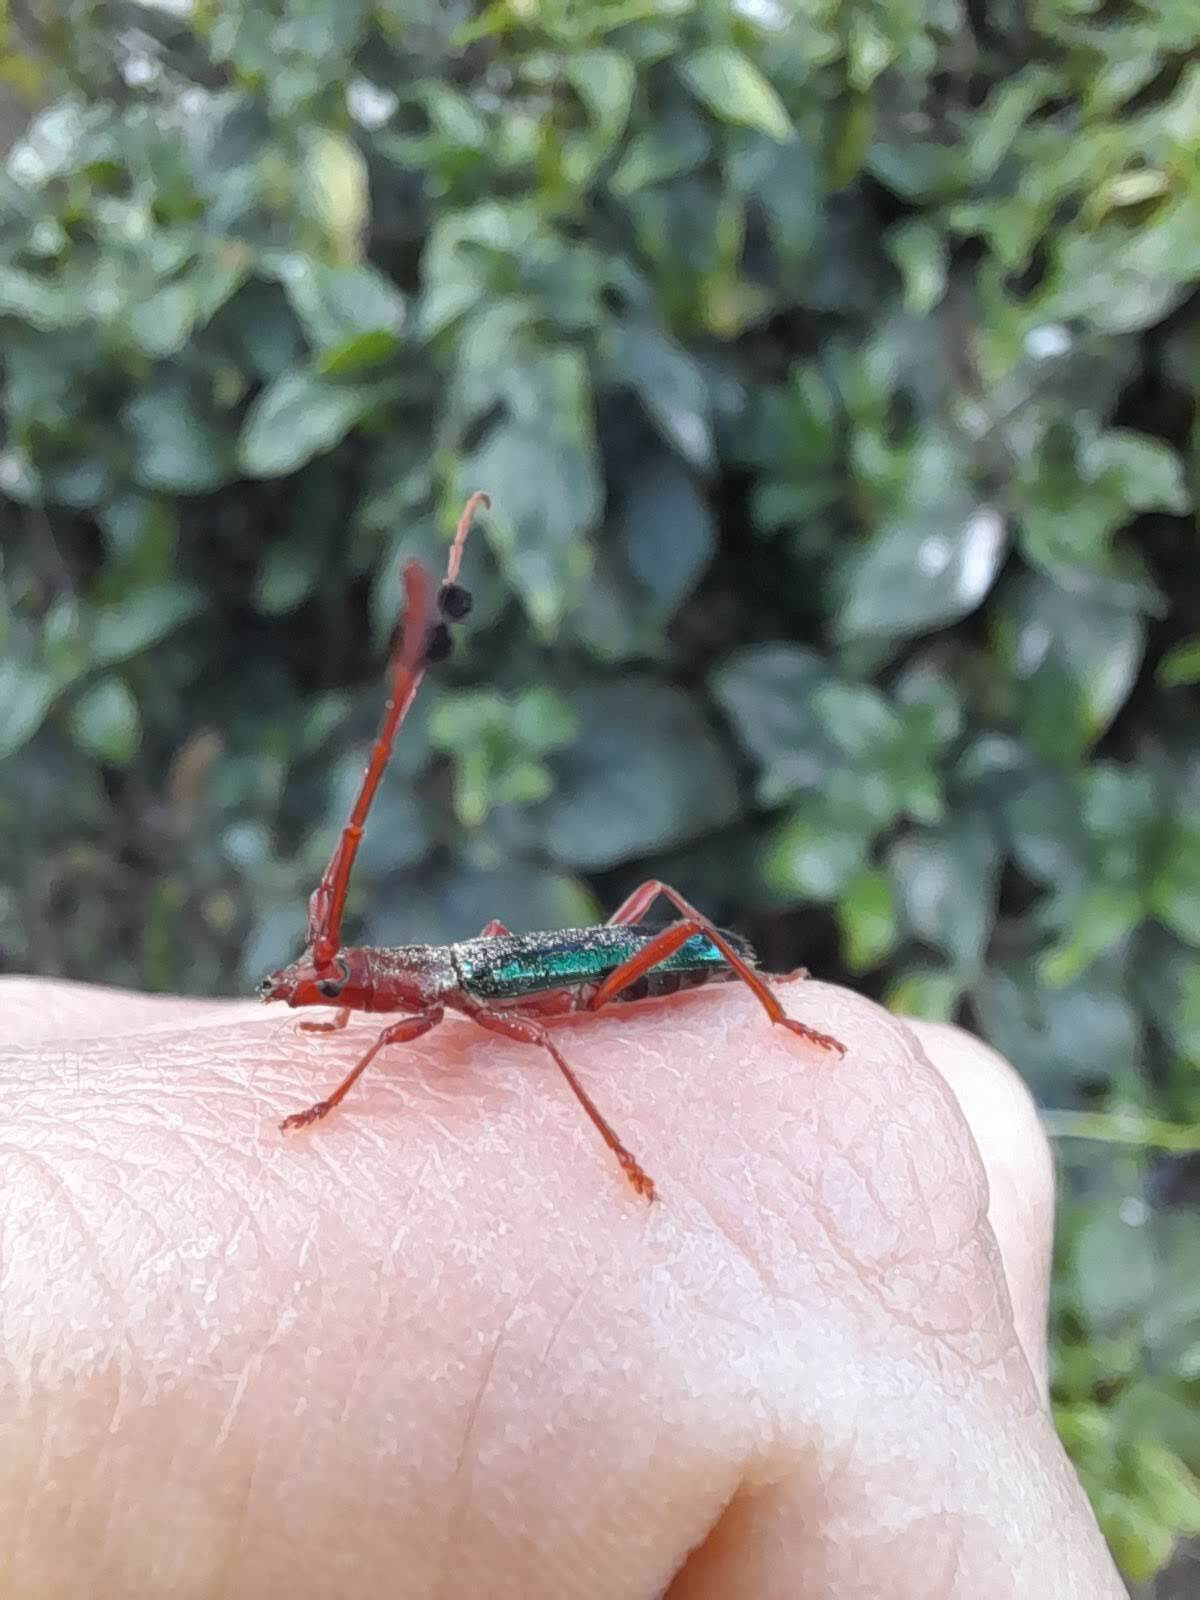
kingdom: Animalia
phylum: Arthropoda
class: Insecta
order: Coleoptera
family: Cerambycidae
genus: Compsocerus
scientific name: Compsocerus violaceus
